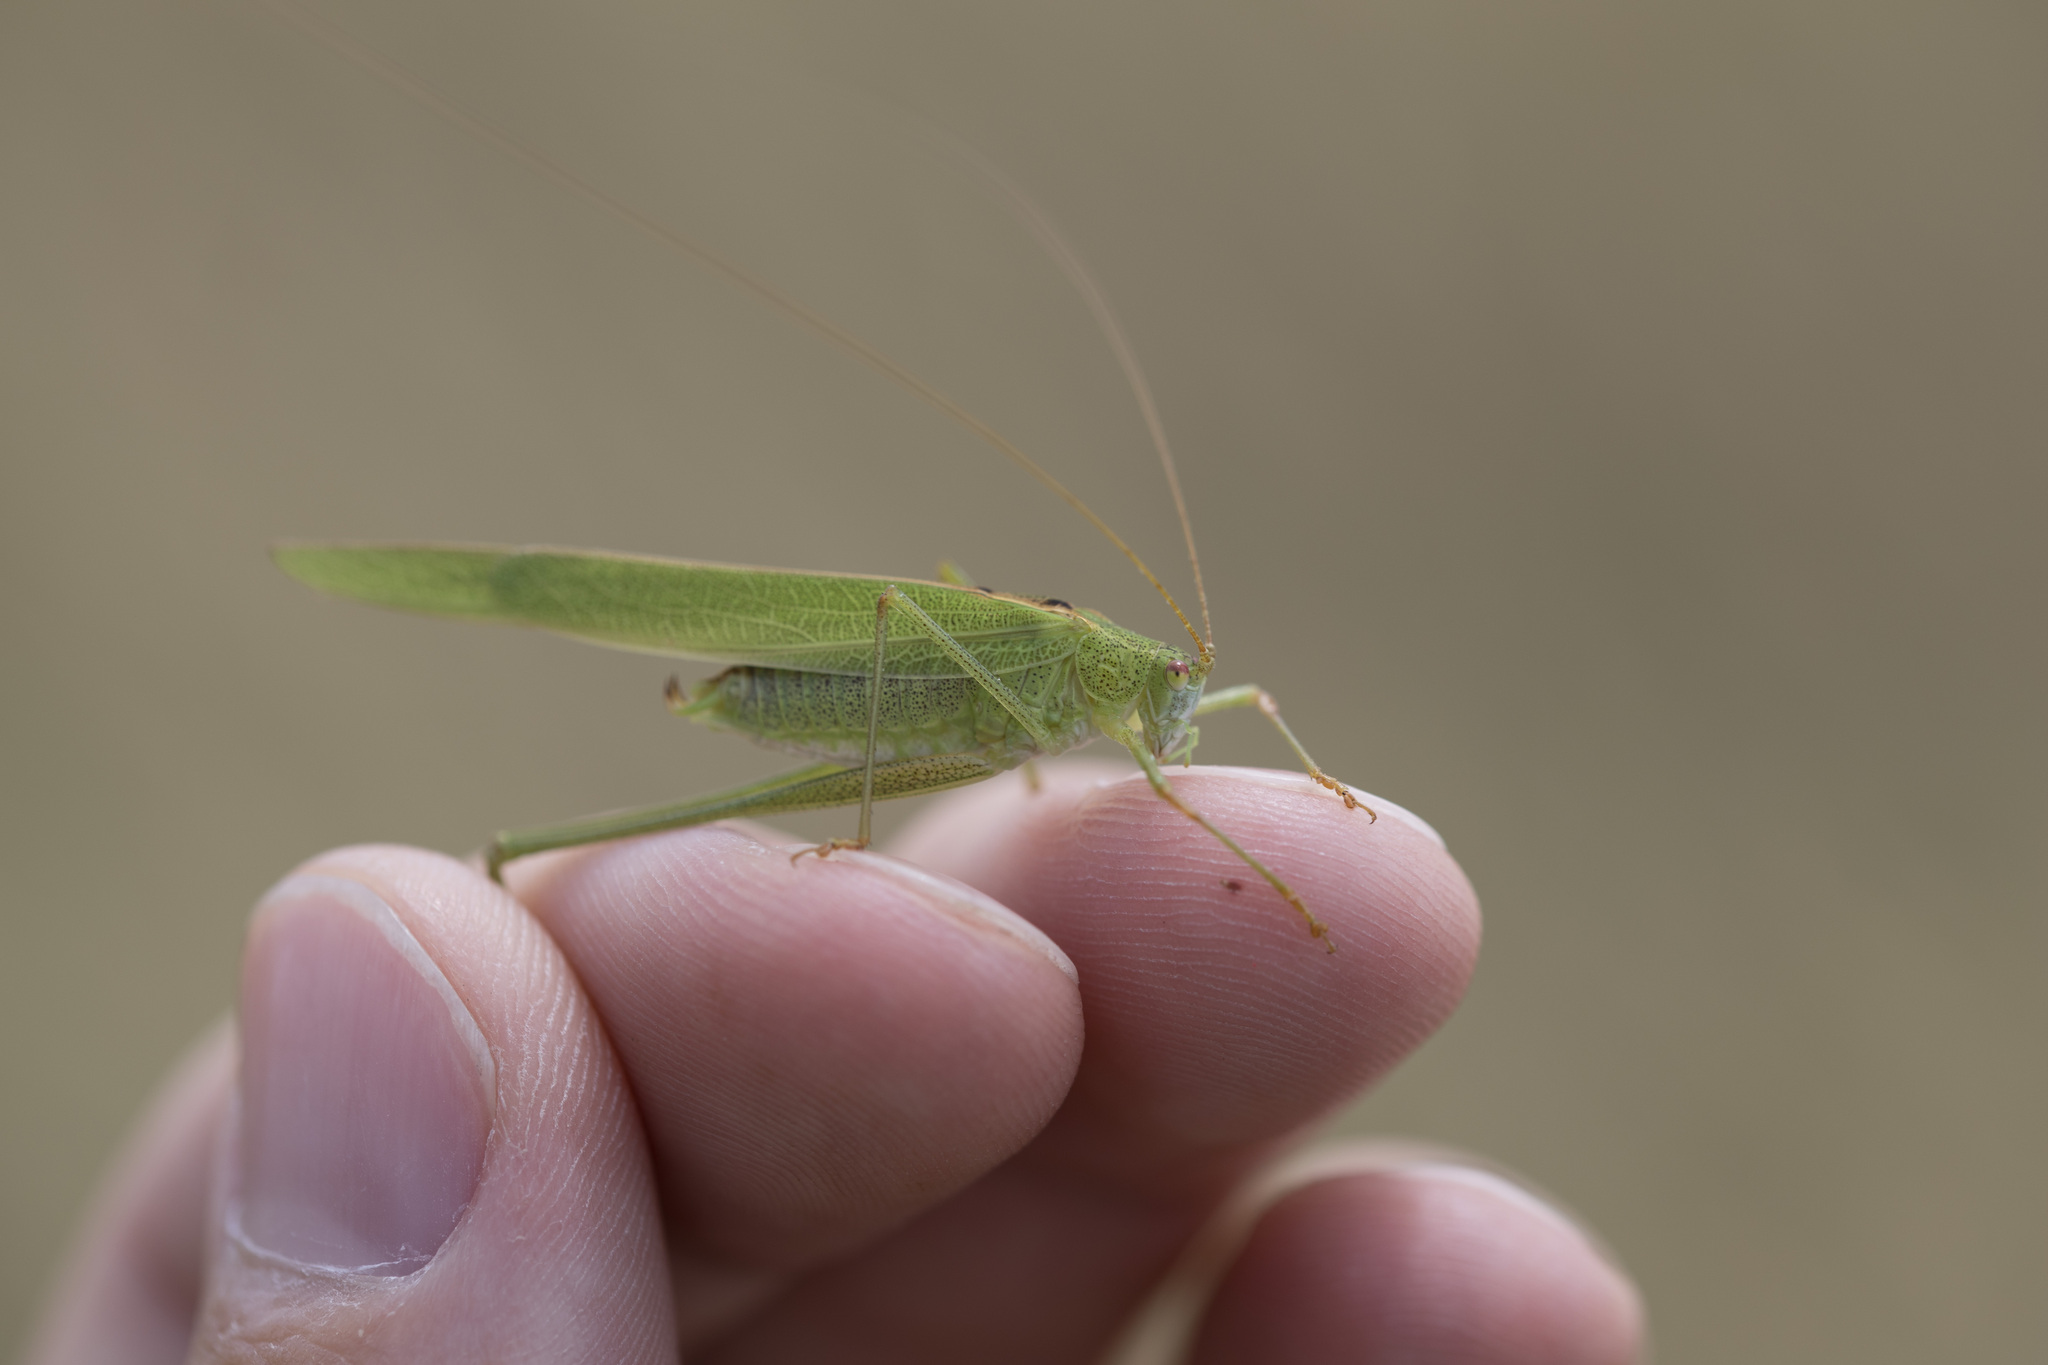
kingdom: Animalia
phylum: Arthropoda
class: Insecta
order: Orthoptera
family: Tettigoniidae
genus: Phaneroptera
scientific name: Phaneroptera falcata
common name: Sickle-bearing bush-cricket
